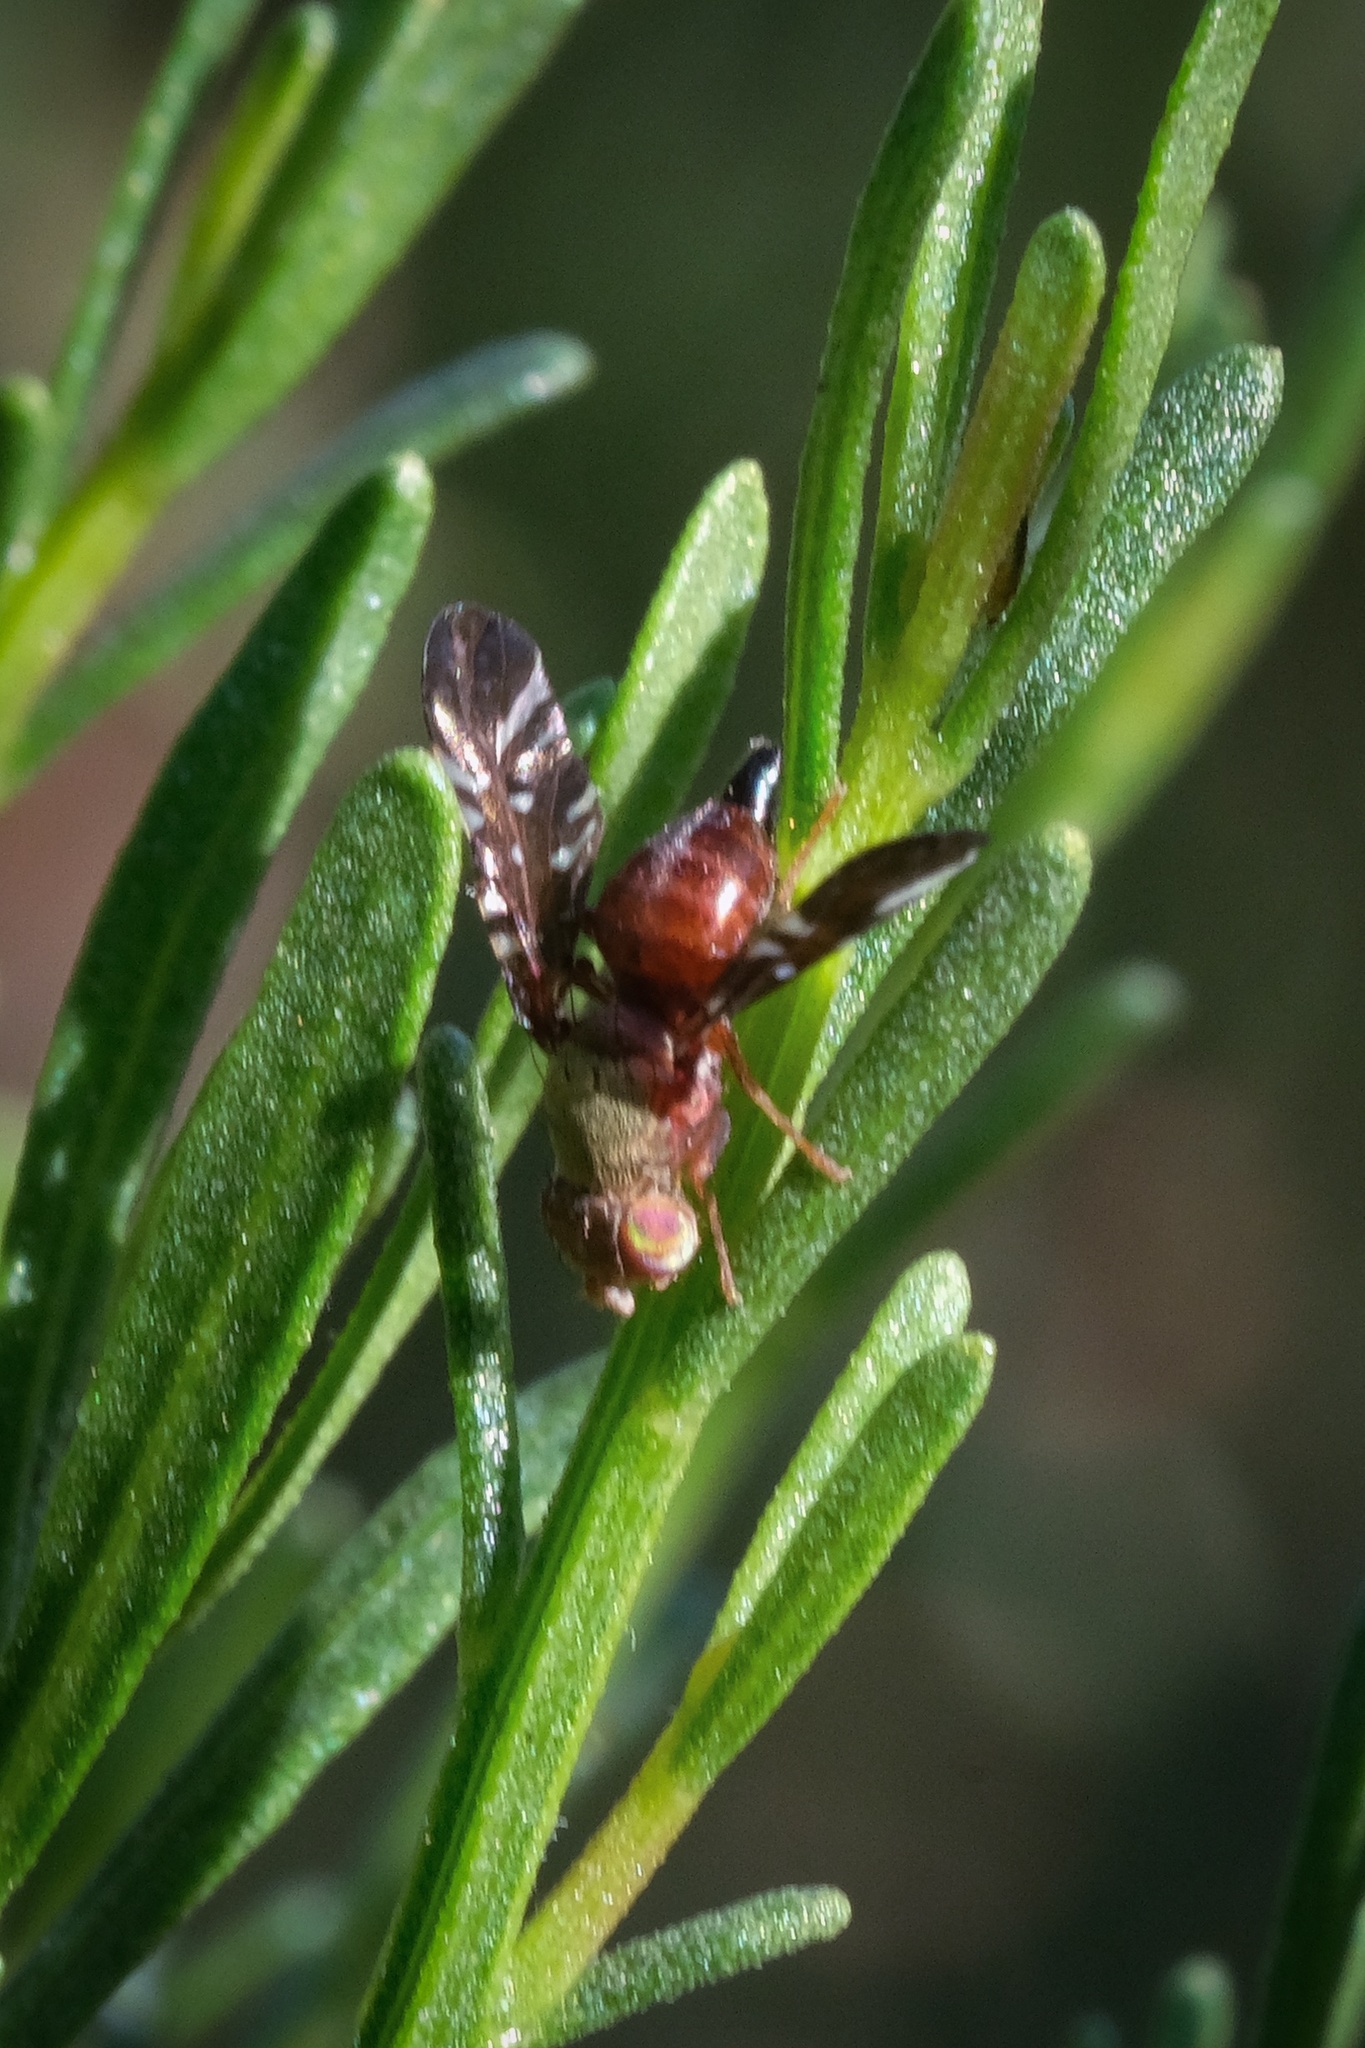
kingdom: Animalia
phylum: Arthropoda
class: Insecta
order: Diptera
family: Tephritidae
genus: Aciurina
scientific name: Aciurina thoracica
